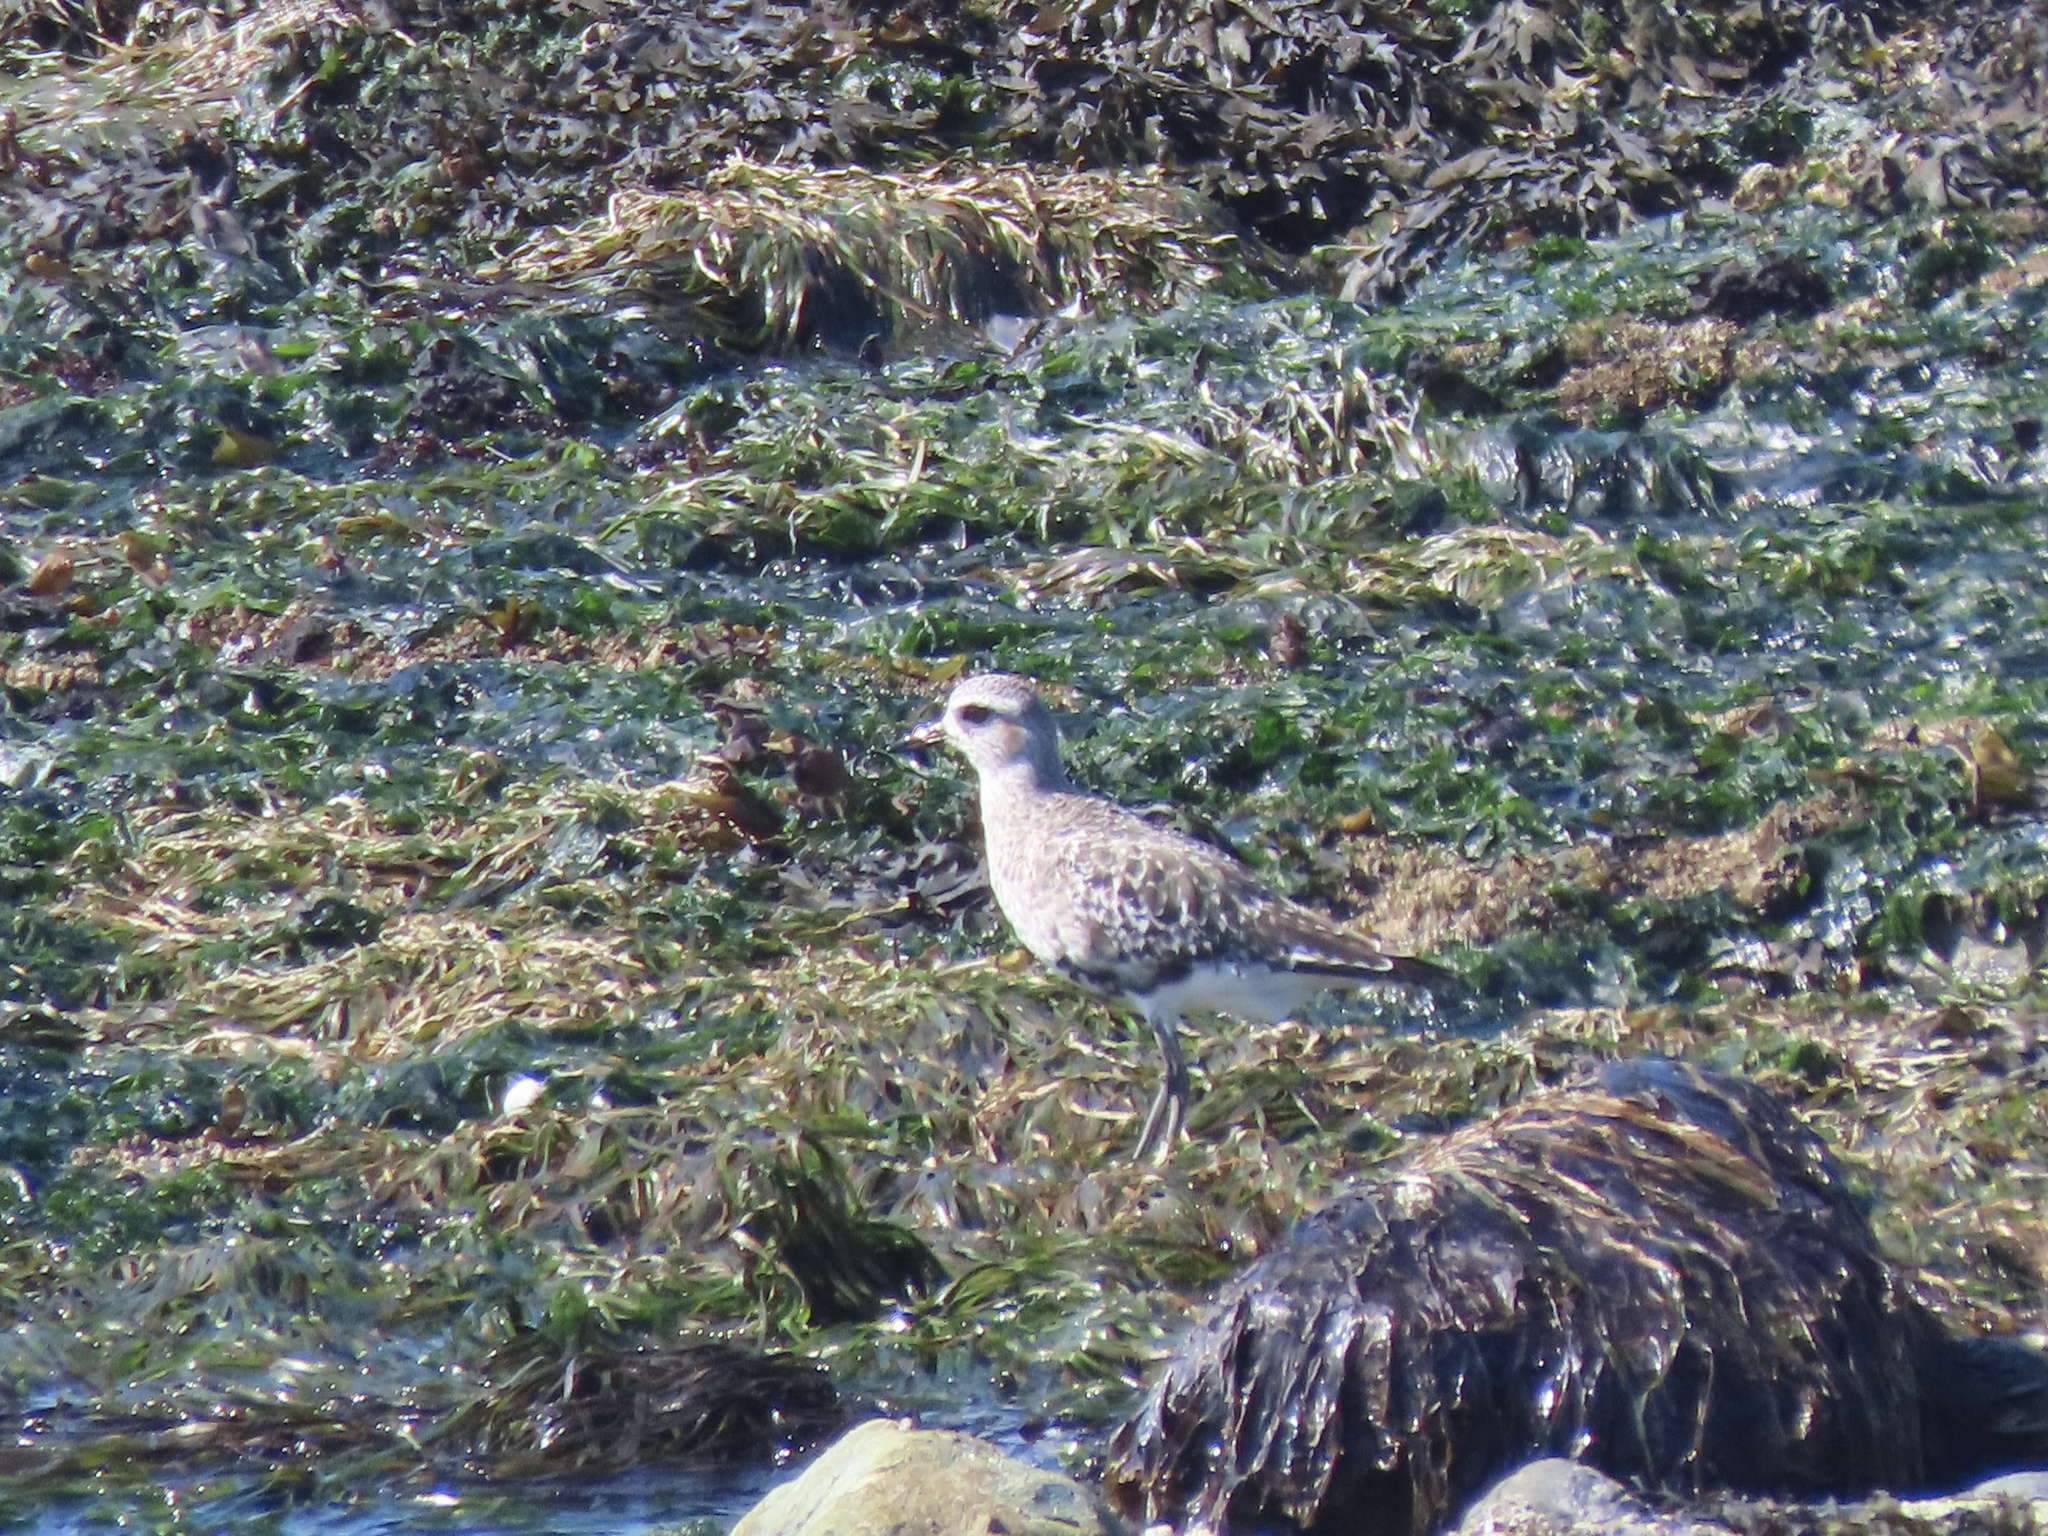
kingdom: Animalia
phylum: Chordata
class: Aves
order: Charadriiformes
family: Charadriidae
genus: Pluvialis
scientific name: Pluvialis squatarola
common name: Grey plover
